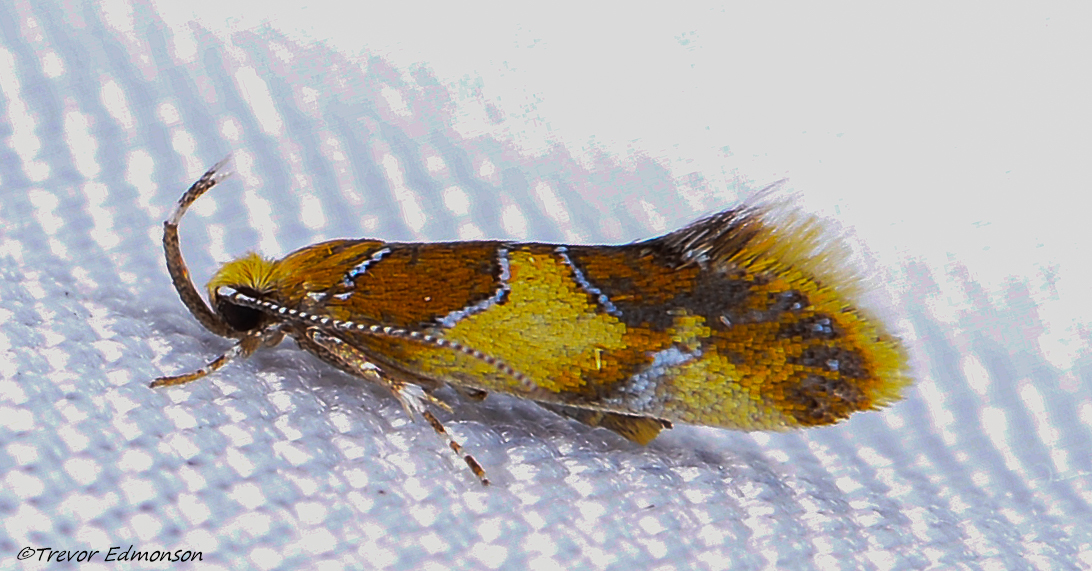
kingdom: Animalia
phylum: Arthropoda
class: Insecta
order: Lepidoptera
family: Oecophoridae
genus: Callima
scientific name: Callima argenticinctella
